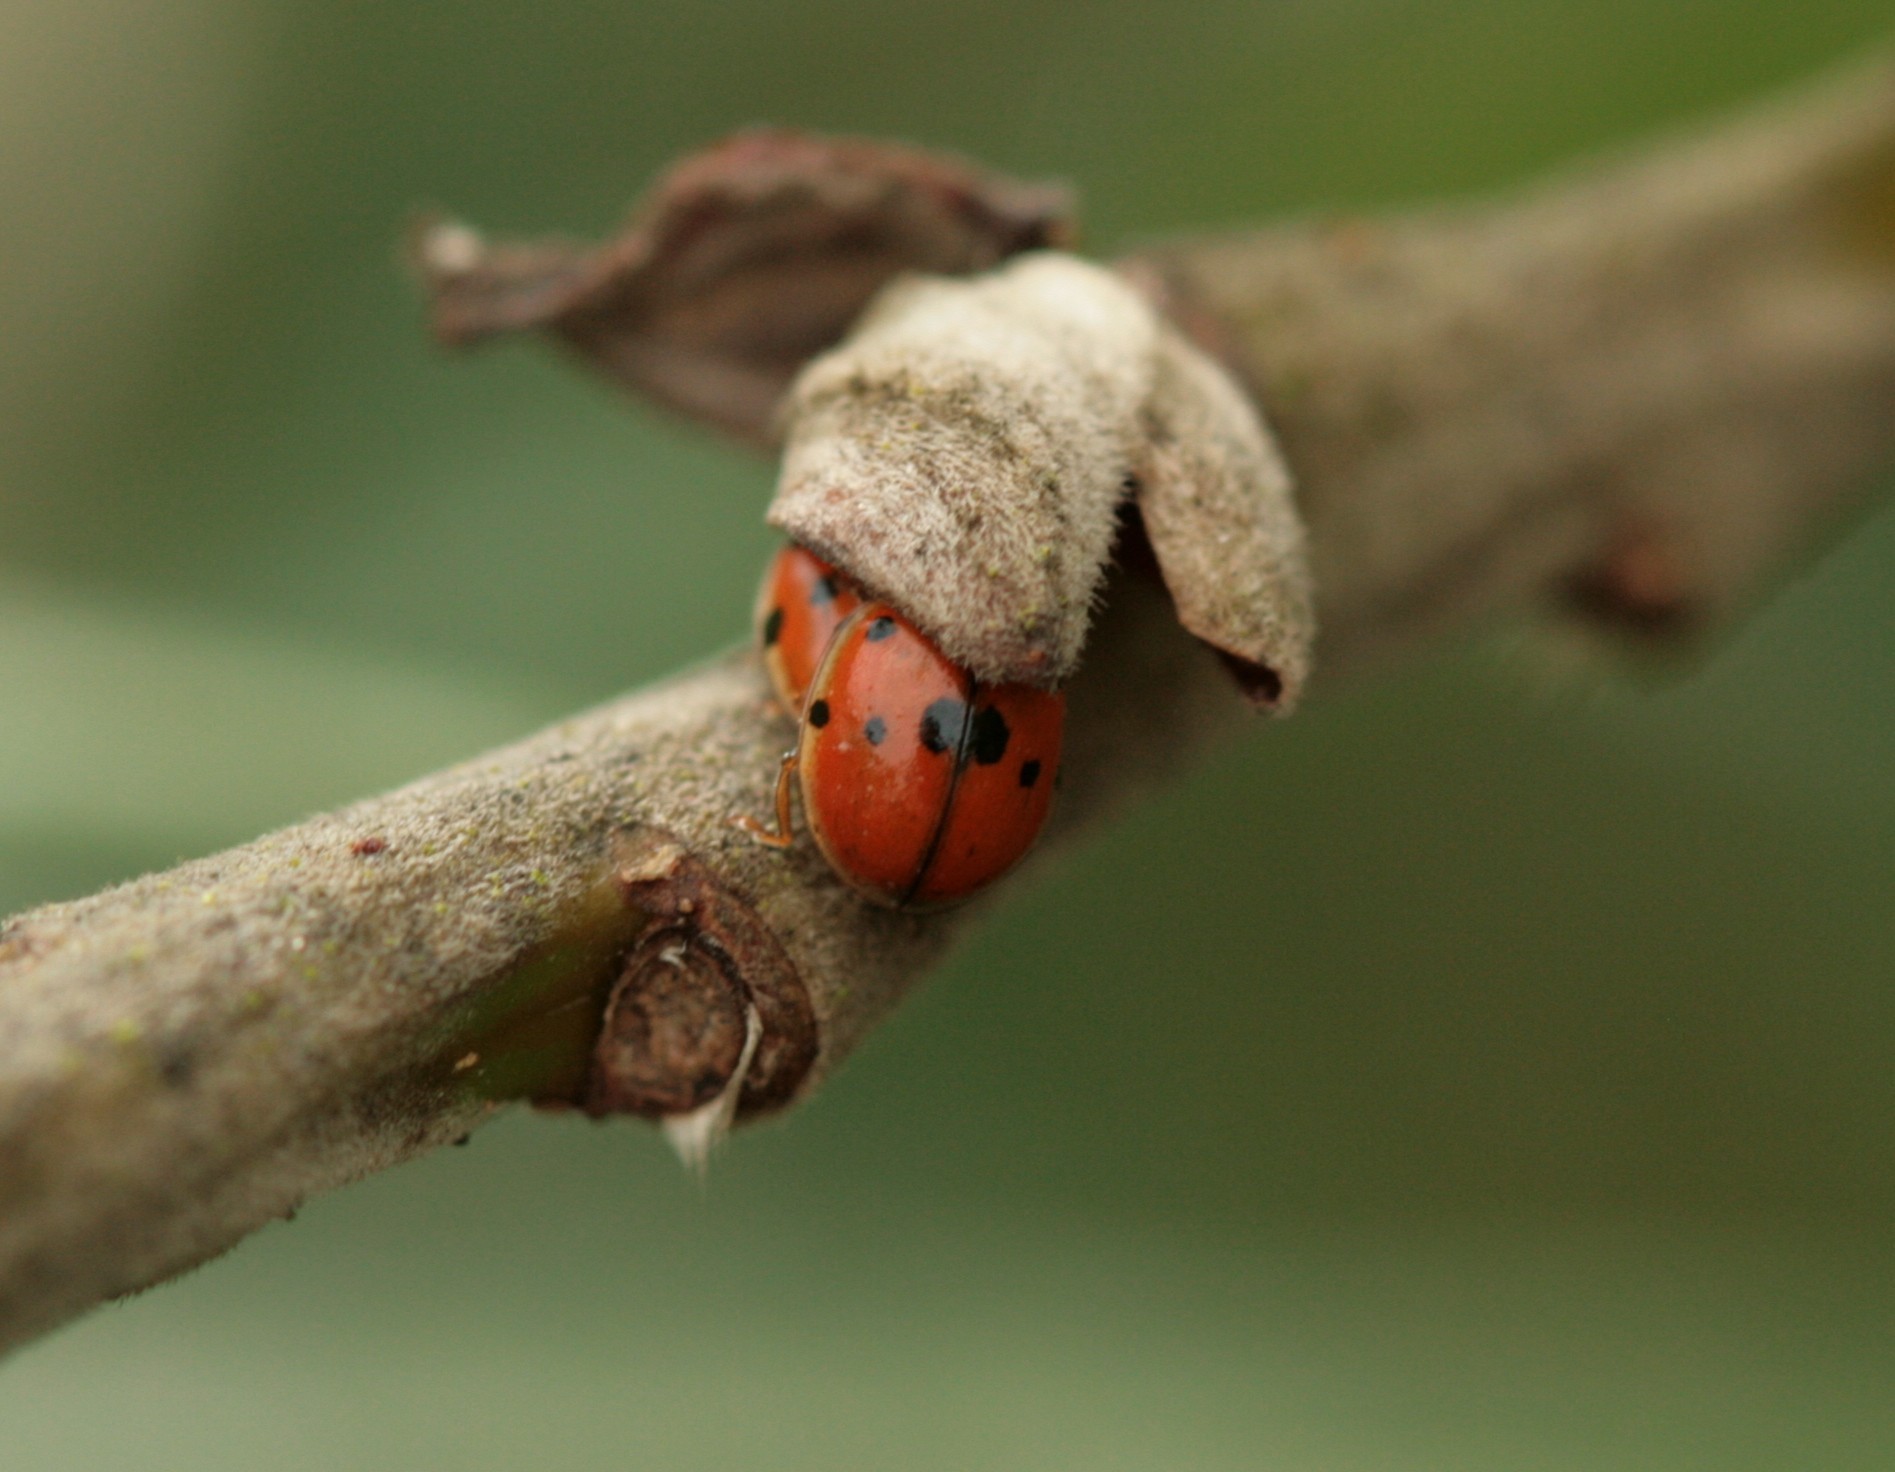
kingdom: Animalia
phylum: Arthropoda
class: Insecta
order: Coleoptera
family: Coccinellidae
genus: Adalia
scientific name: Adalia decempunctata
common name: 10-spot ladybird
